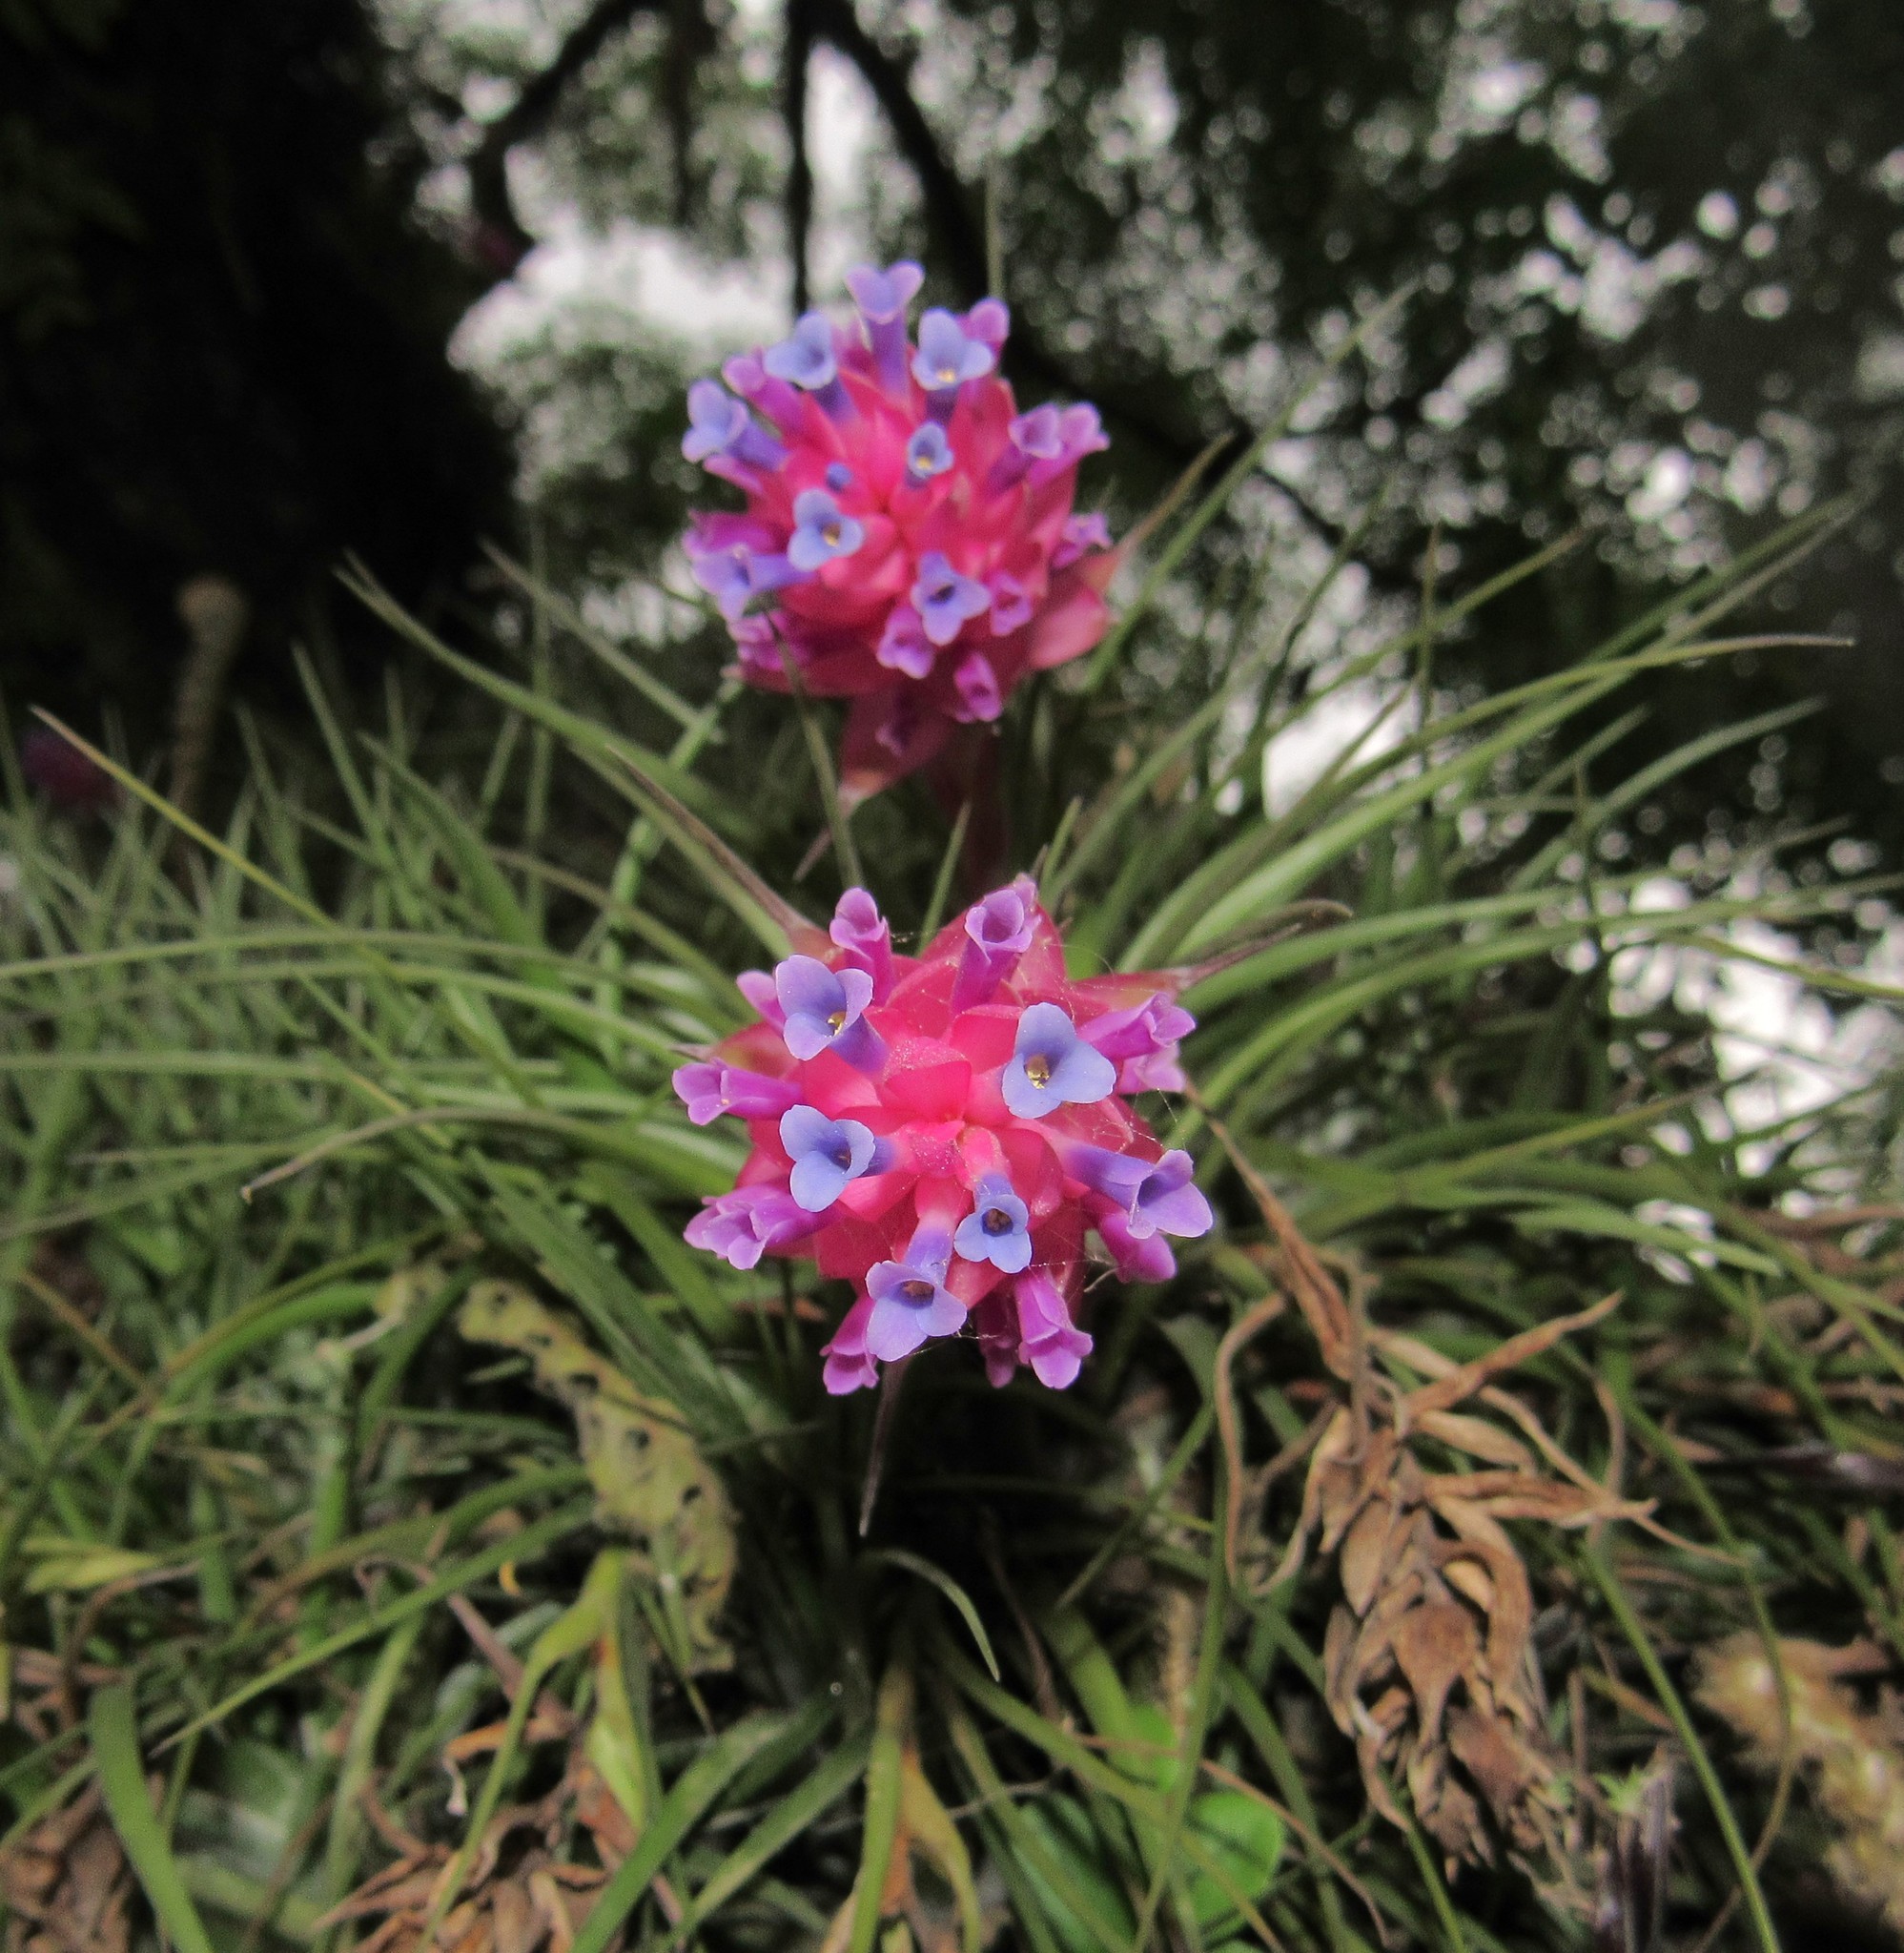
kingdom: Plantae
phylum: Tracheophyta
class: Liliopsida
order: Poales
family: Bromeliaceae
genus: Tillandsia
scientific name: Tillandsia stricta
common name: Airplant
